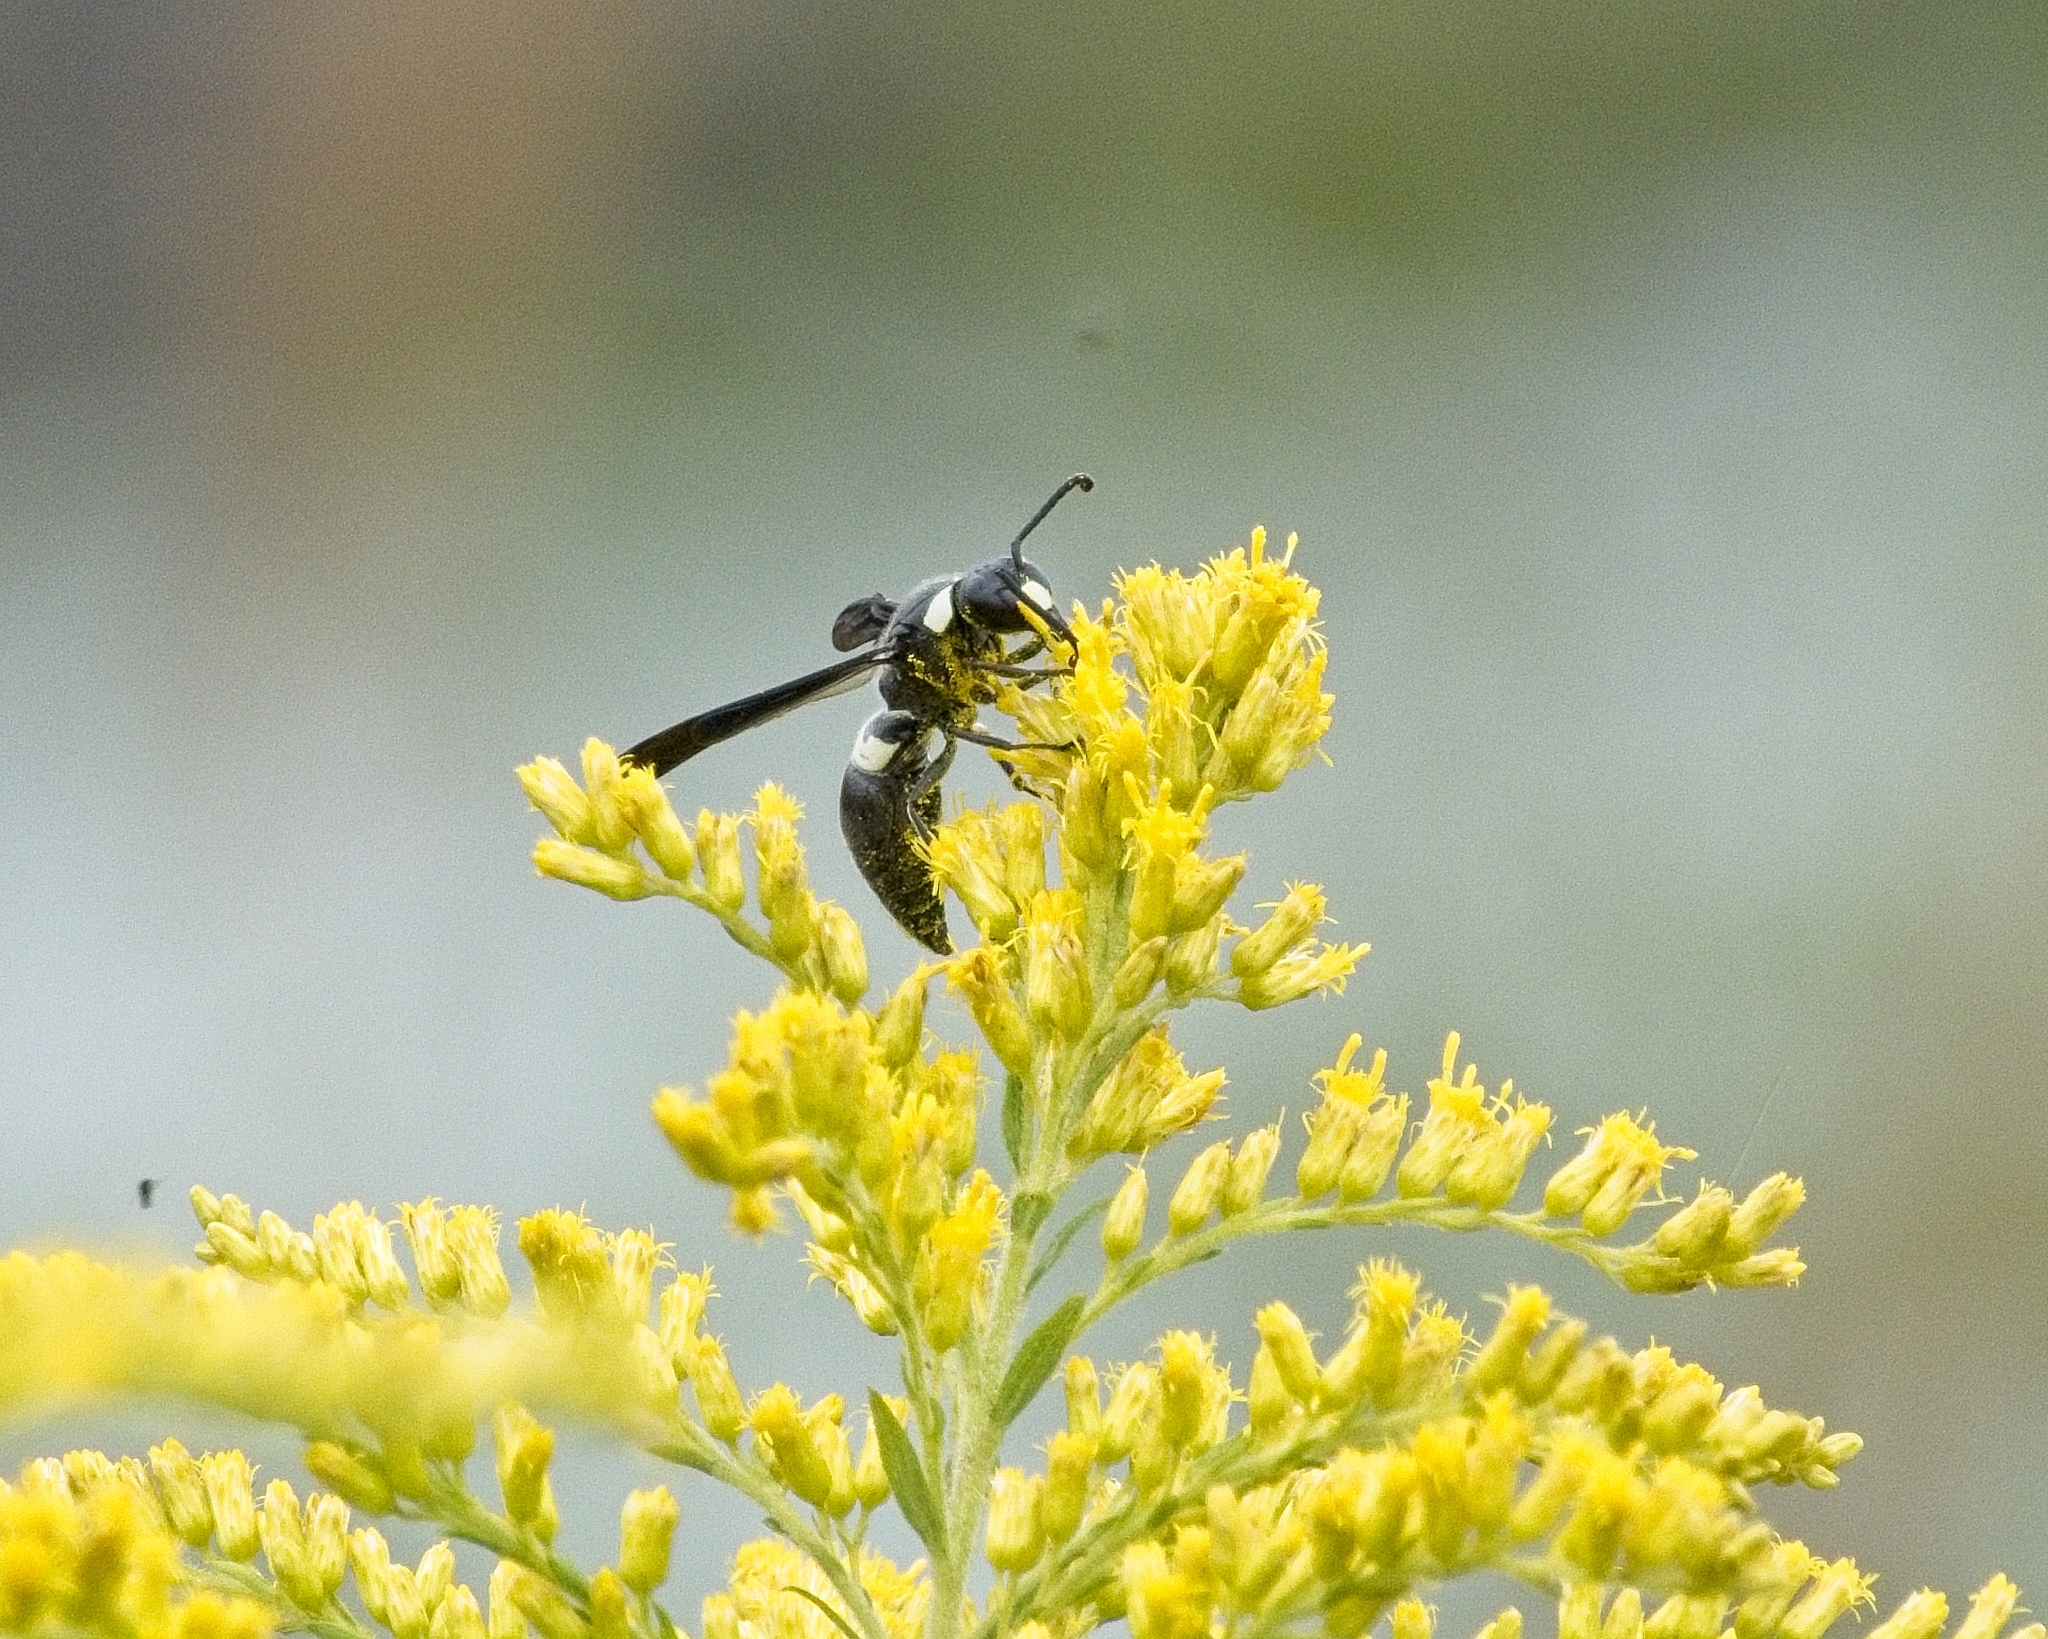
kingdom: Animalia
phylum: Arthropoda
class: Insecta
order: Hymenoptera
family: Eumenidae
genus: Monobia
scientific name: Monobia quadridens
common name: Four-toothed mason wasp
